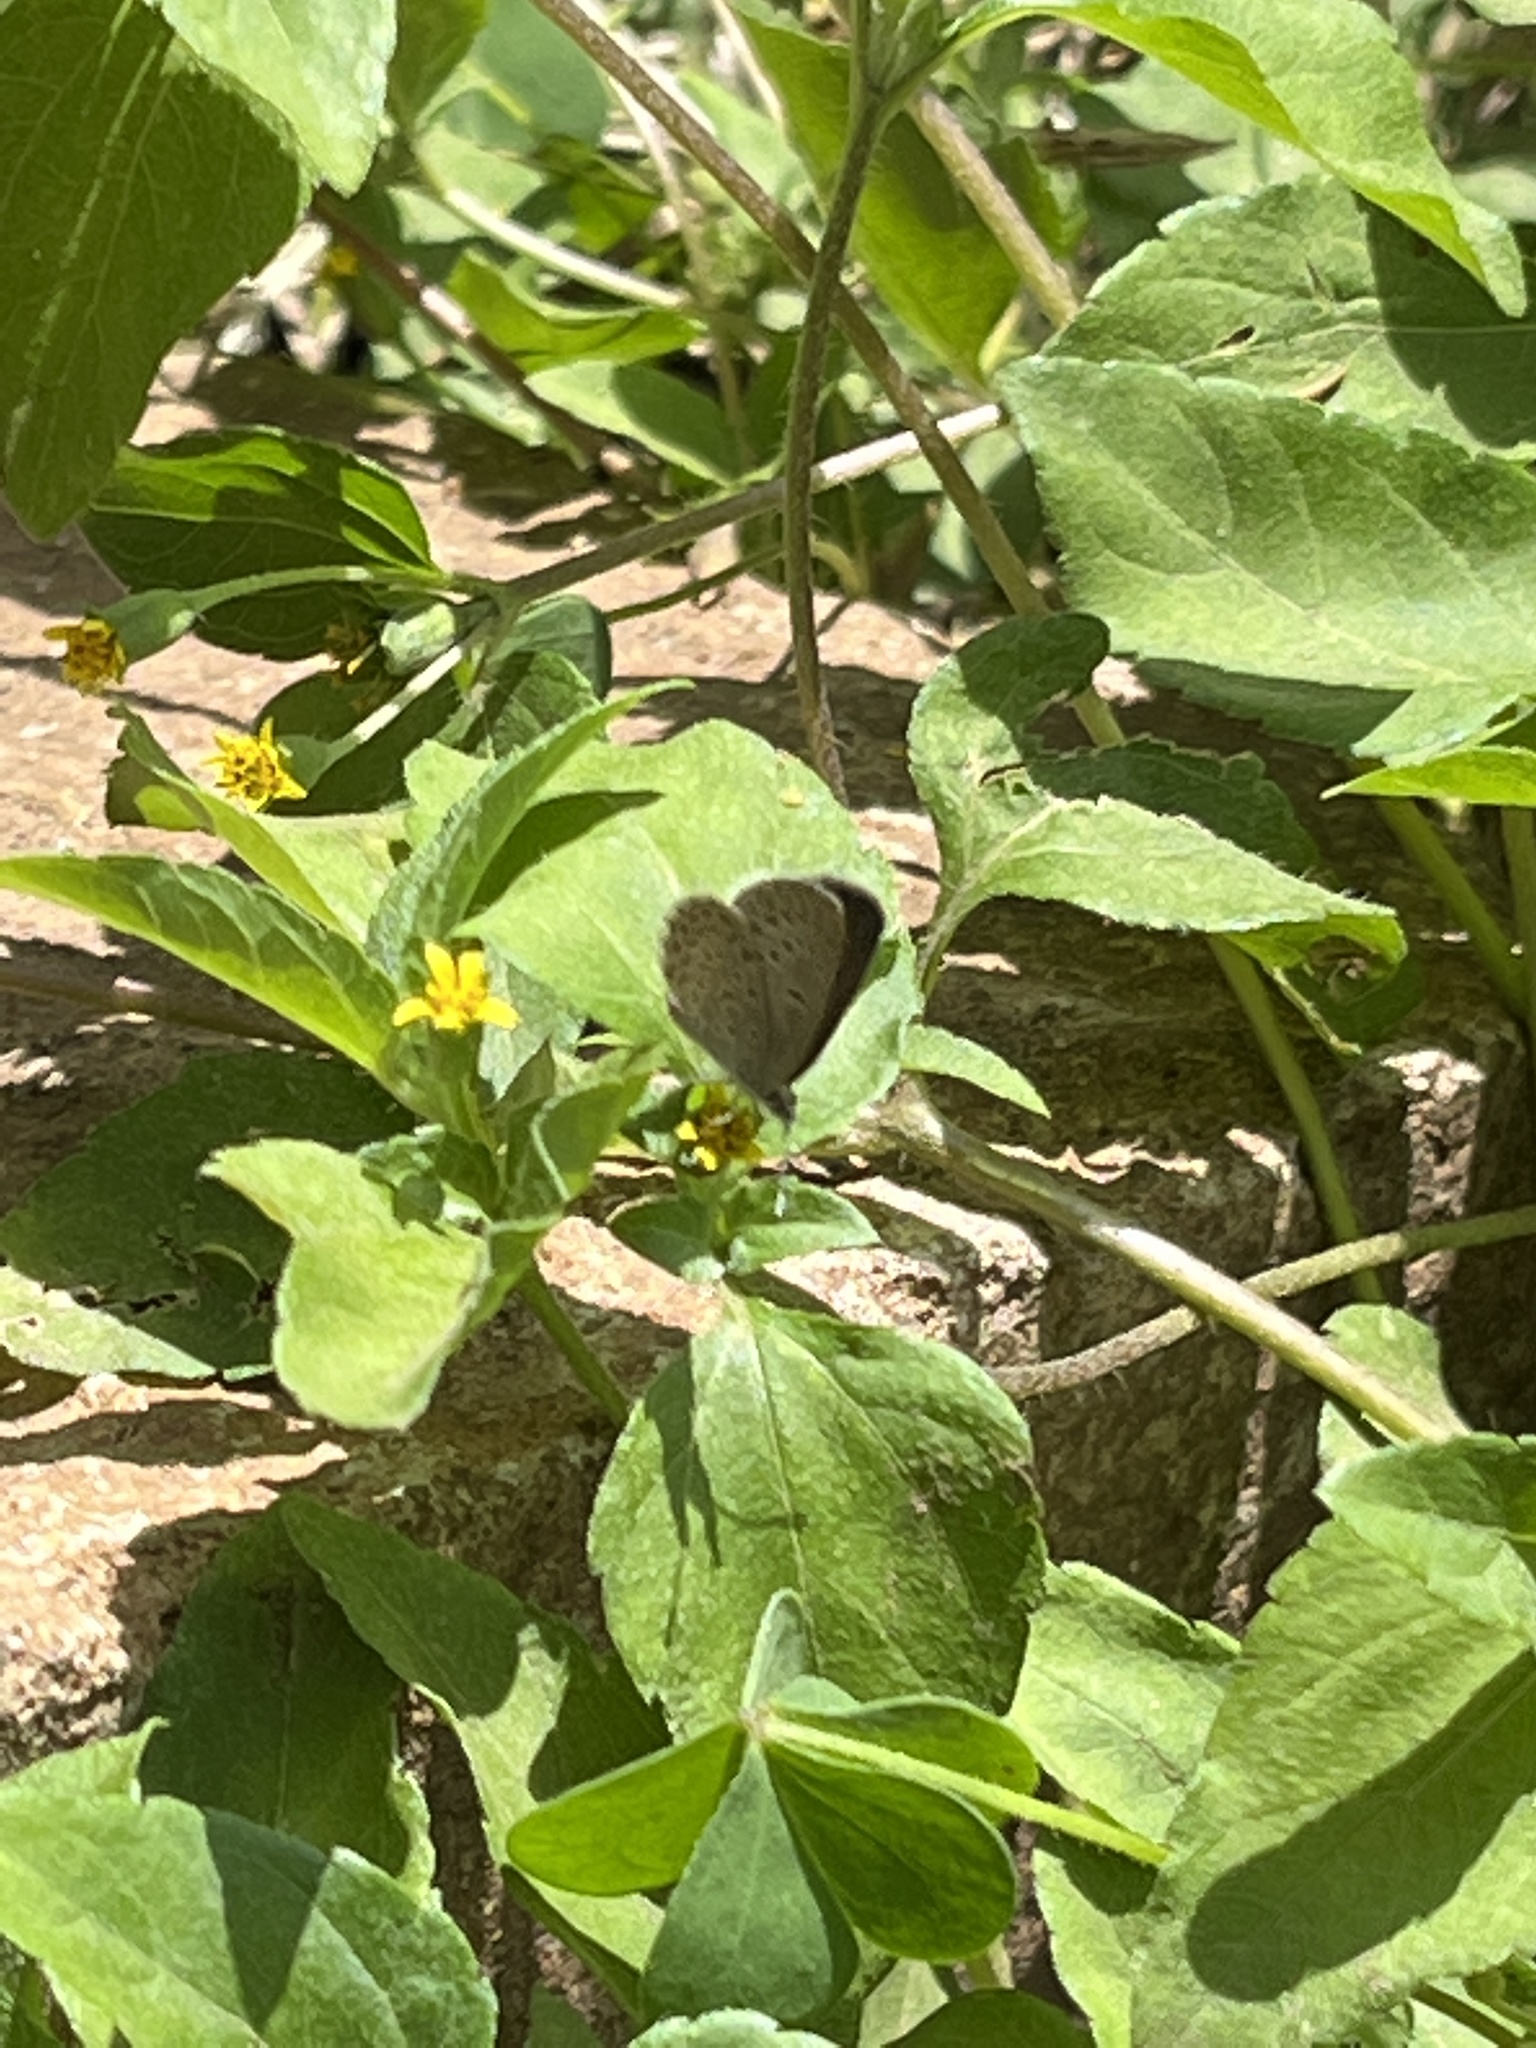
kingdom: Animalia
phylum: Arthropoda
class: Insecta
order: Lepidoptera
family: Lycaenidae
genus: Zizeeria
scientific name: Zizeeria knysna
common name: African grass blue
